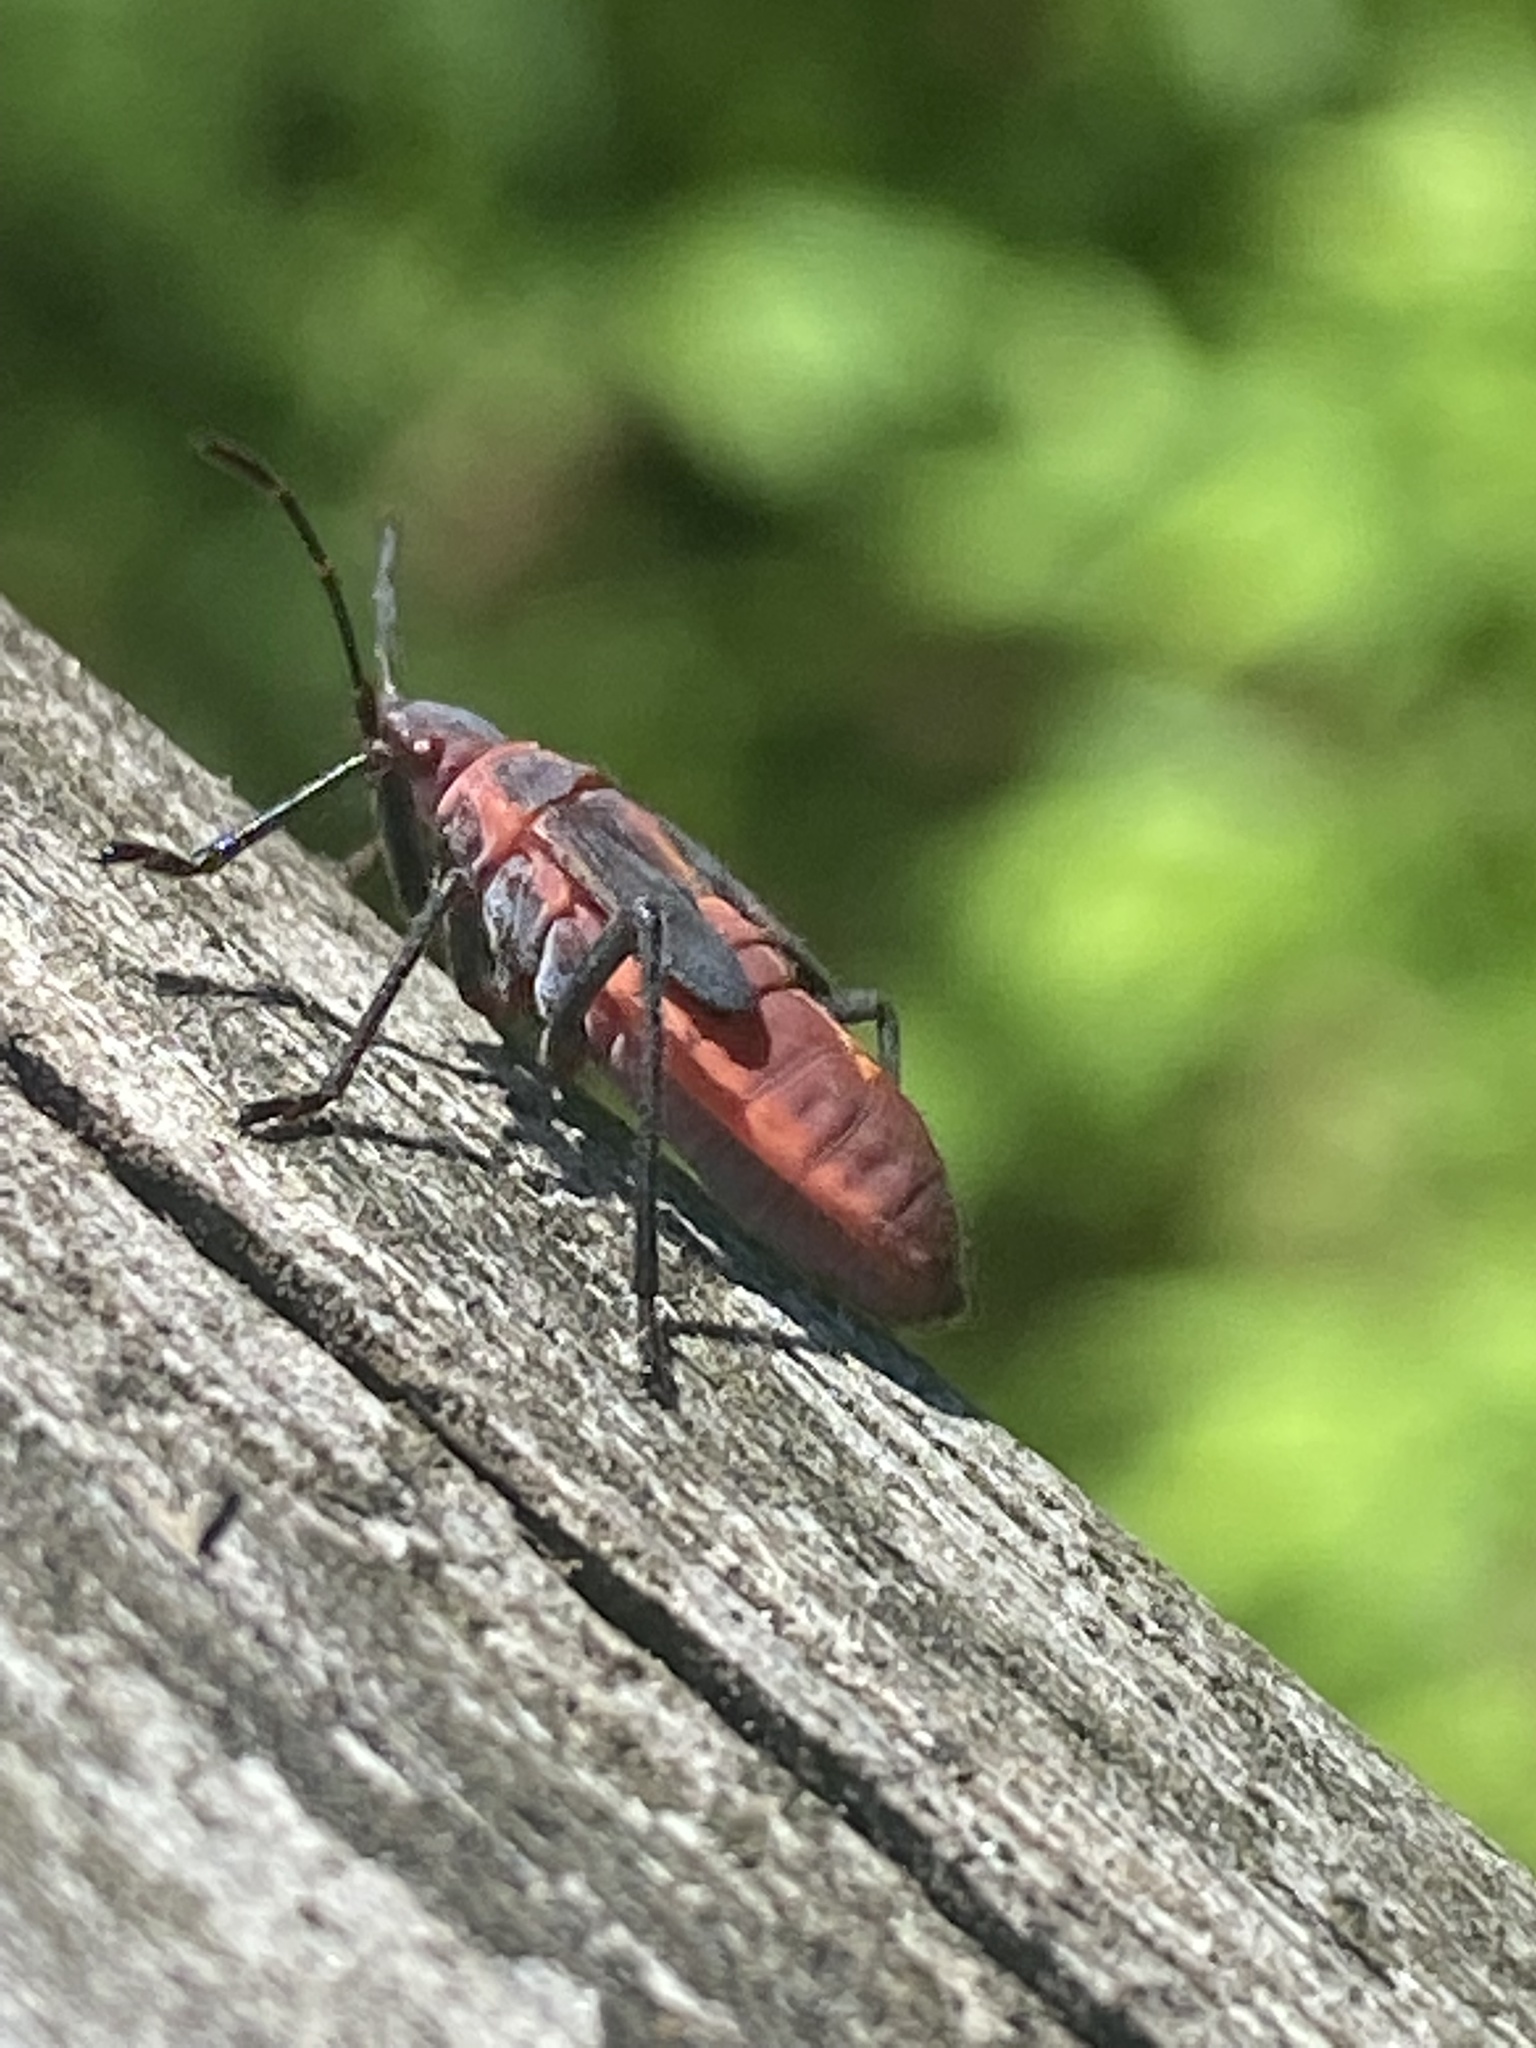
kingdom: Animalia
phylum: Arthropoda
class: Insecta
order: Hemiptera
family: Rhopalidae
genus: Boisea
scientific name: Boisea trivittata
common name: Boxelder bug
